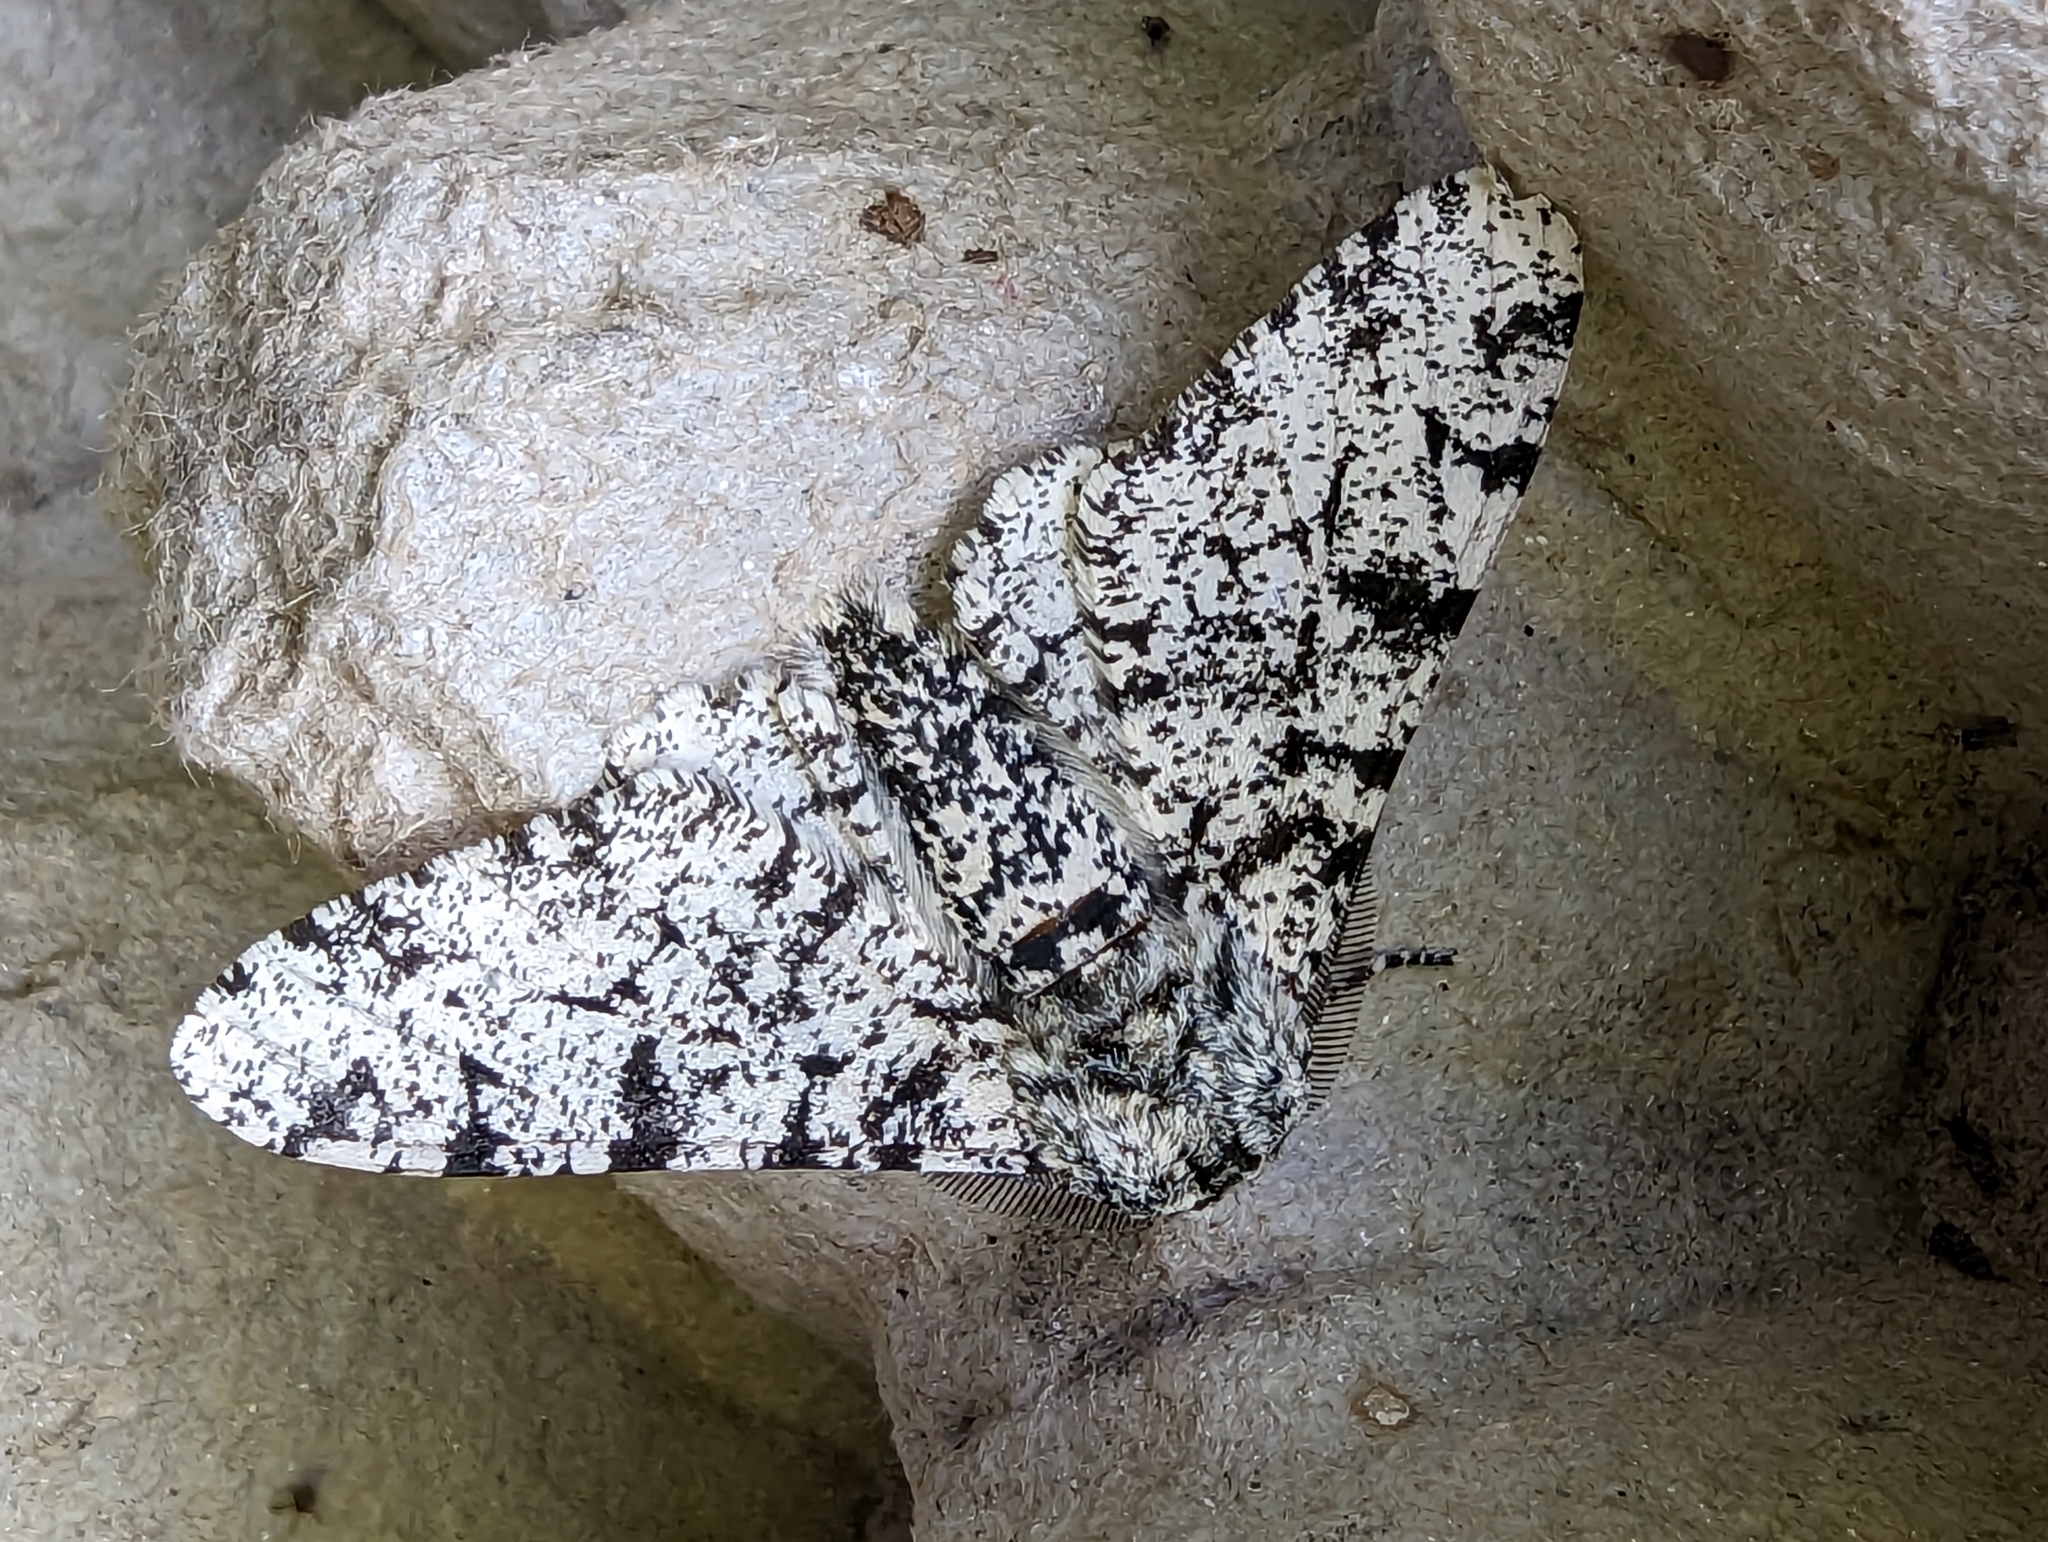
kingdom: Animalia
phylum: Arthropoda
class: Insecta
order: Lepidoptera
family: Geometridae
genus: Biston
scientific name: Biston betularia
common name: Peppered moth
